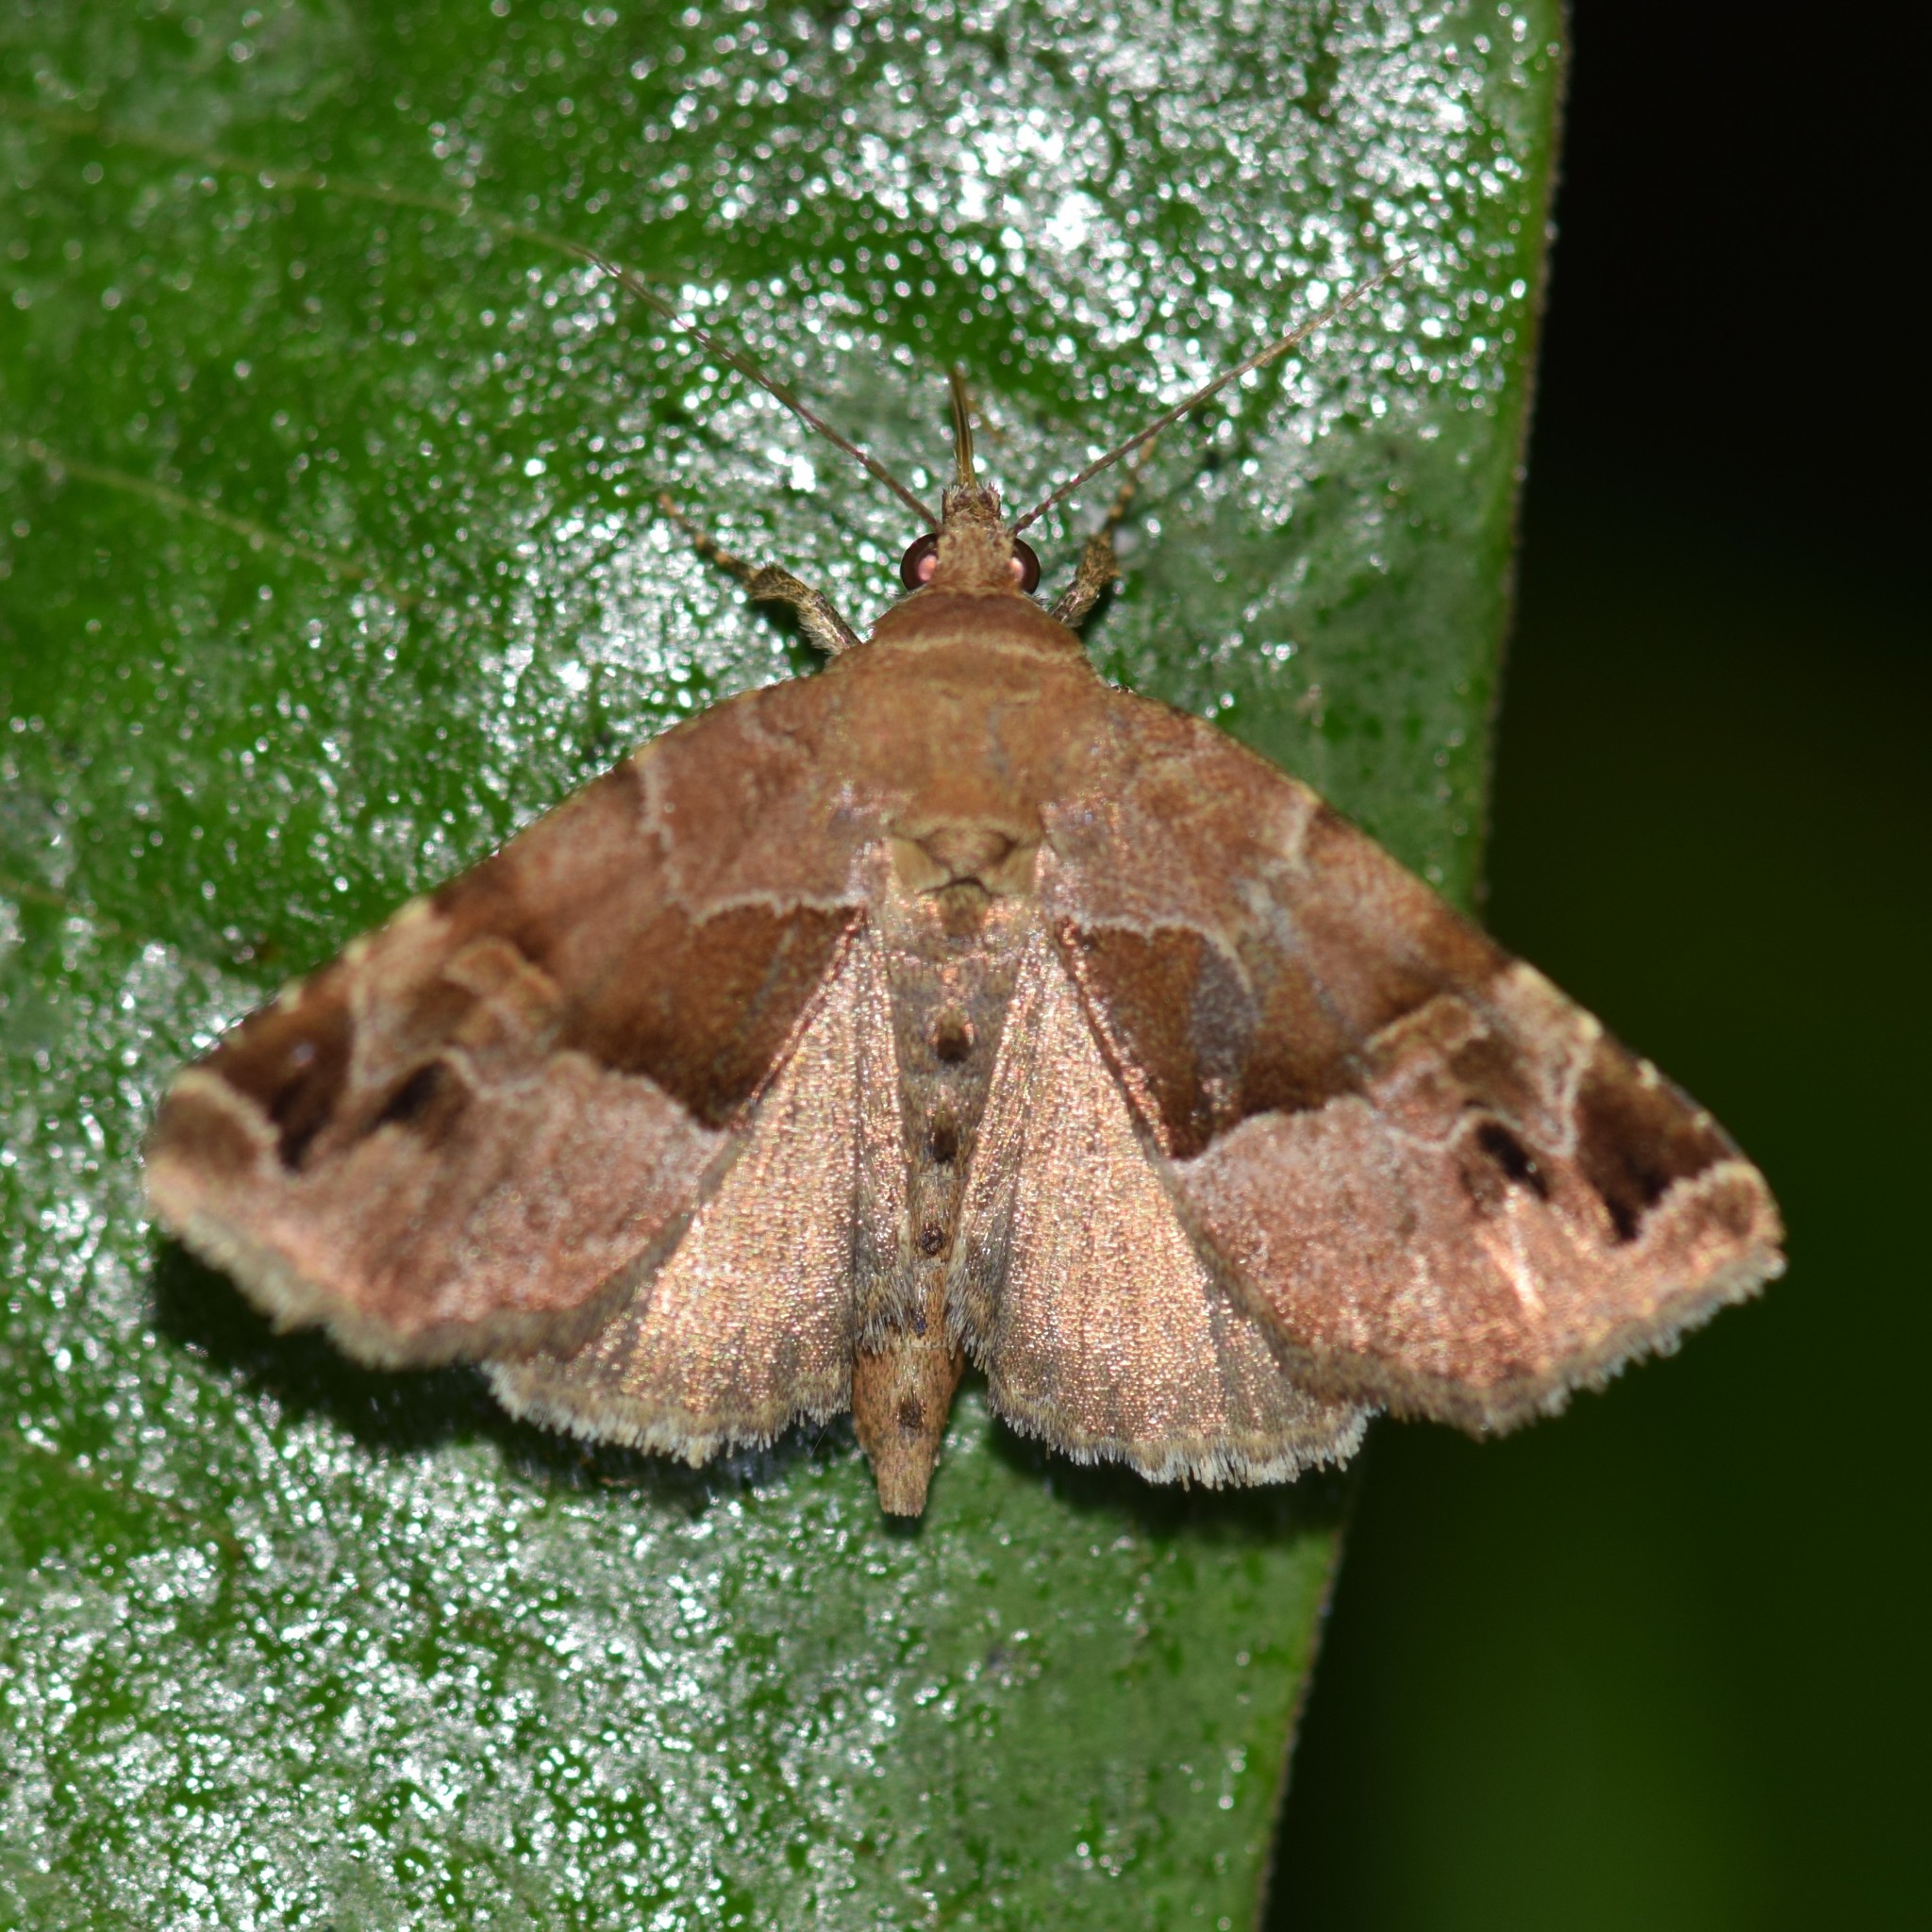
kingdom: Animalia
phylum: Arthropoda
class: Insecta
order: Lepidoptera
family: Noctuidae
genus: Niphonyx
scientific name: Niphonyx segregata
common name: Hops angleshade moth
